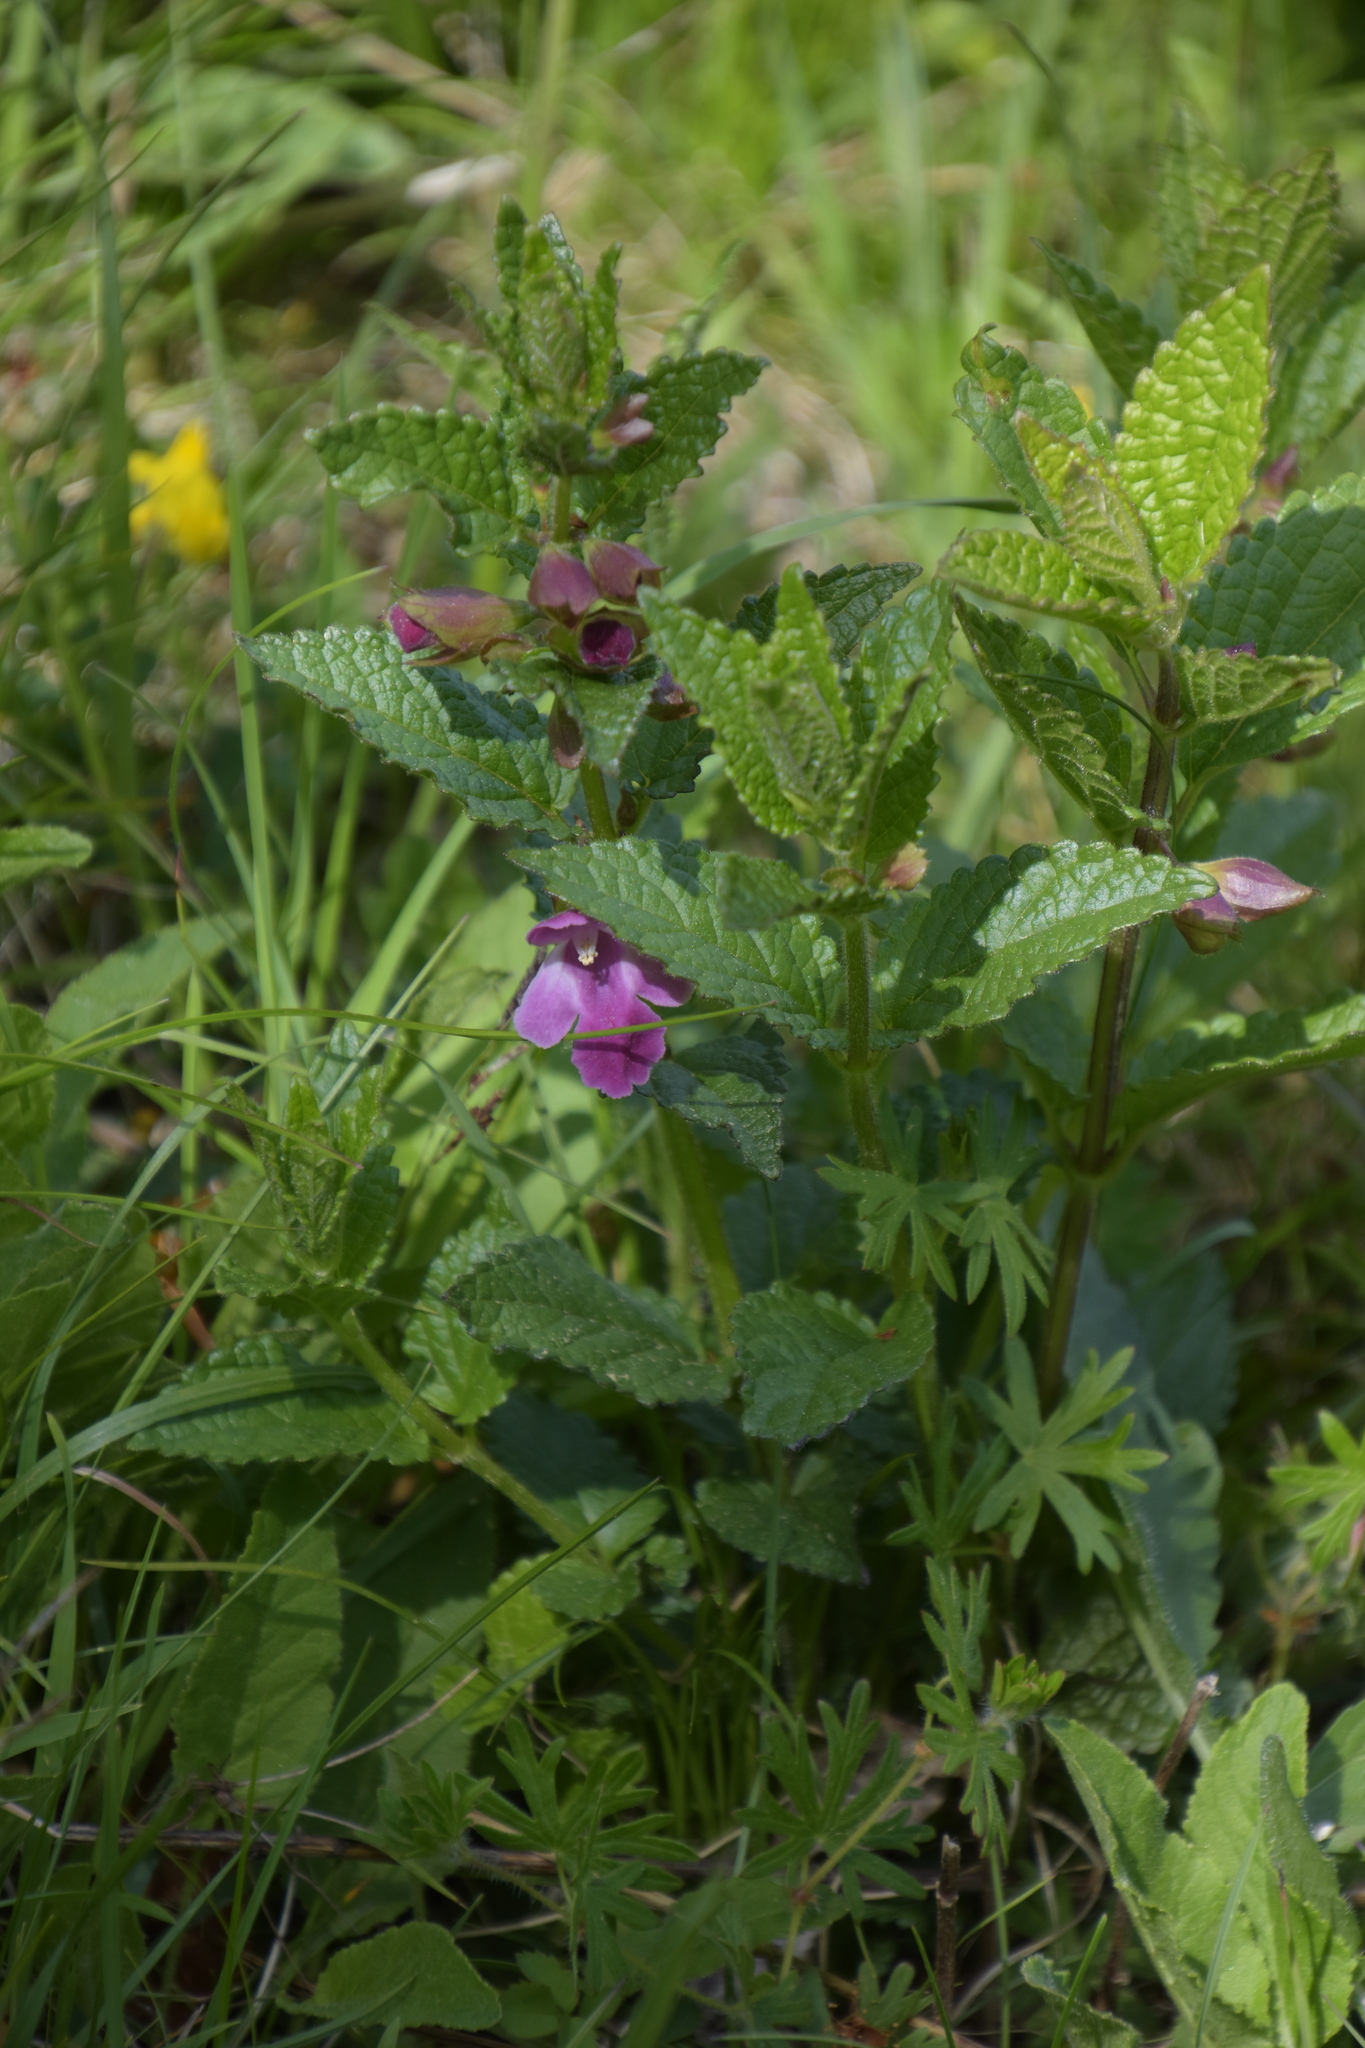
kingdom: Plantae
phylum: Tracheophyta
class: Magnoliopsida
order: Lamiales
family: Lamiaceae
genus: Melittis
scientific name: Melittis melissophyllum
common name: Bastard balm
